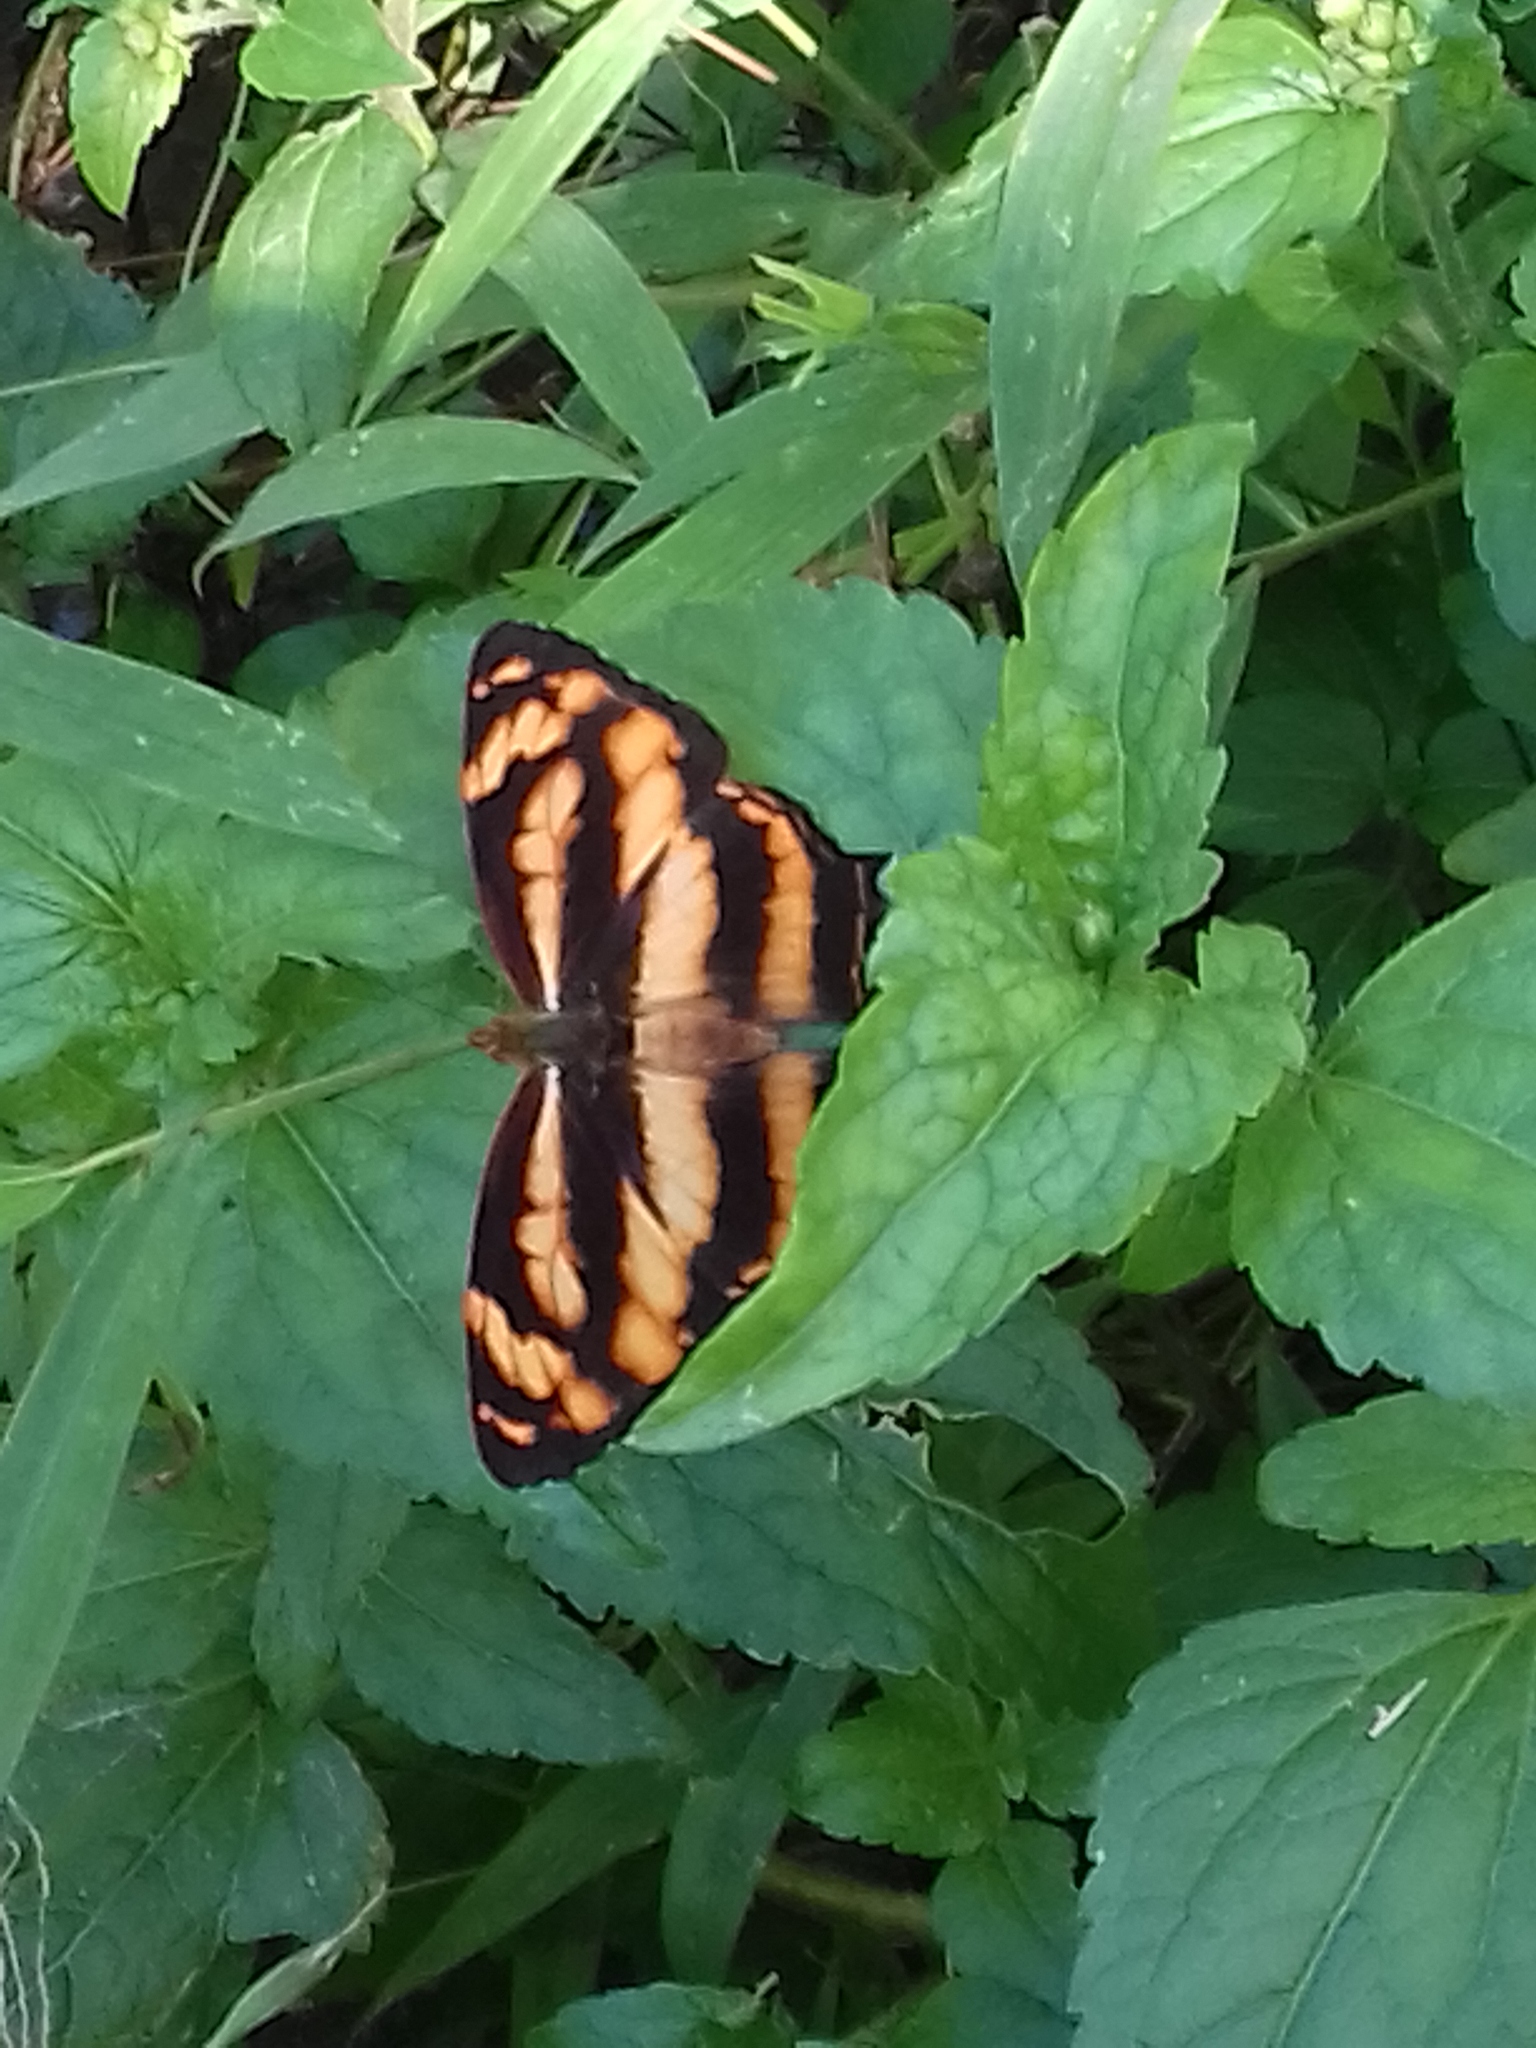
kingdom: Animalia
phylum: Arthropoda
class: Insecta
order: Lepidoptera
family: Nymphalidae
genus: Symbrenthia
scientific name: Symbrenthia hypselis
